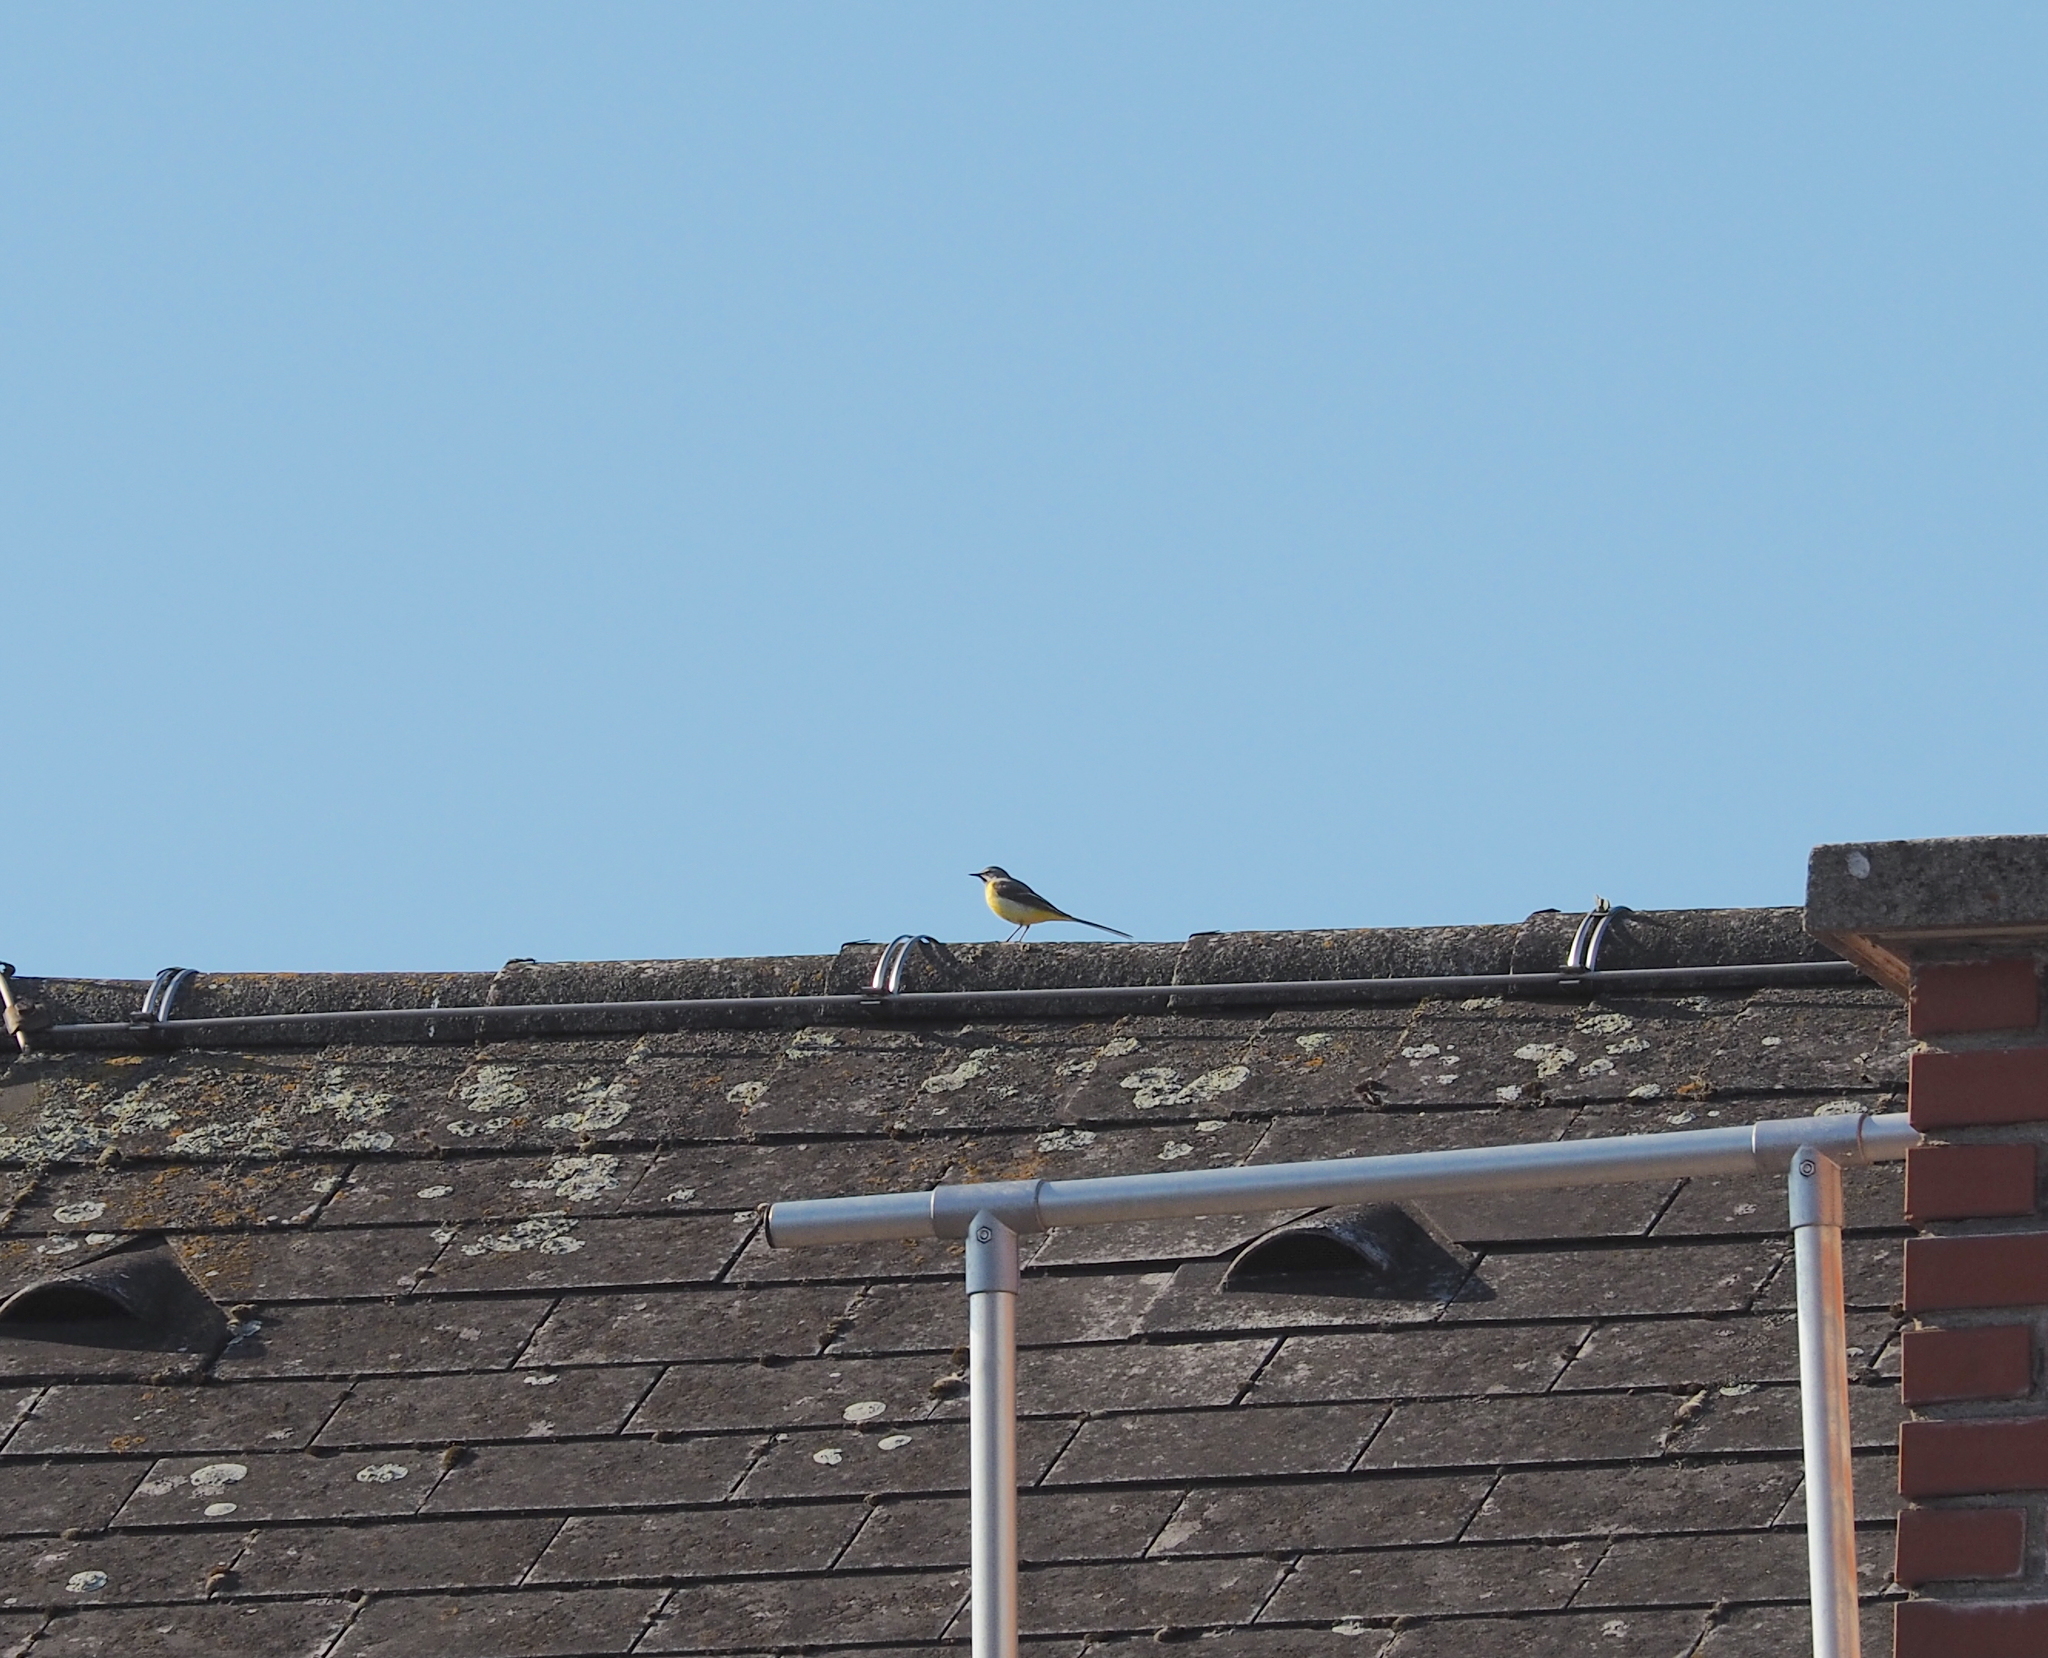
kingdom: Animalia
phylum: Chordata
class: Aves
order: Passeriformes
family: Motacillidae
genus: Motacilla
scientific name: Motacilla cinerea
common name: Grey wagtail
